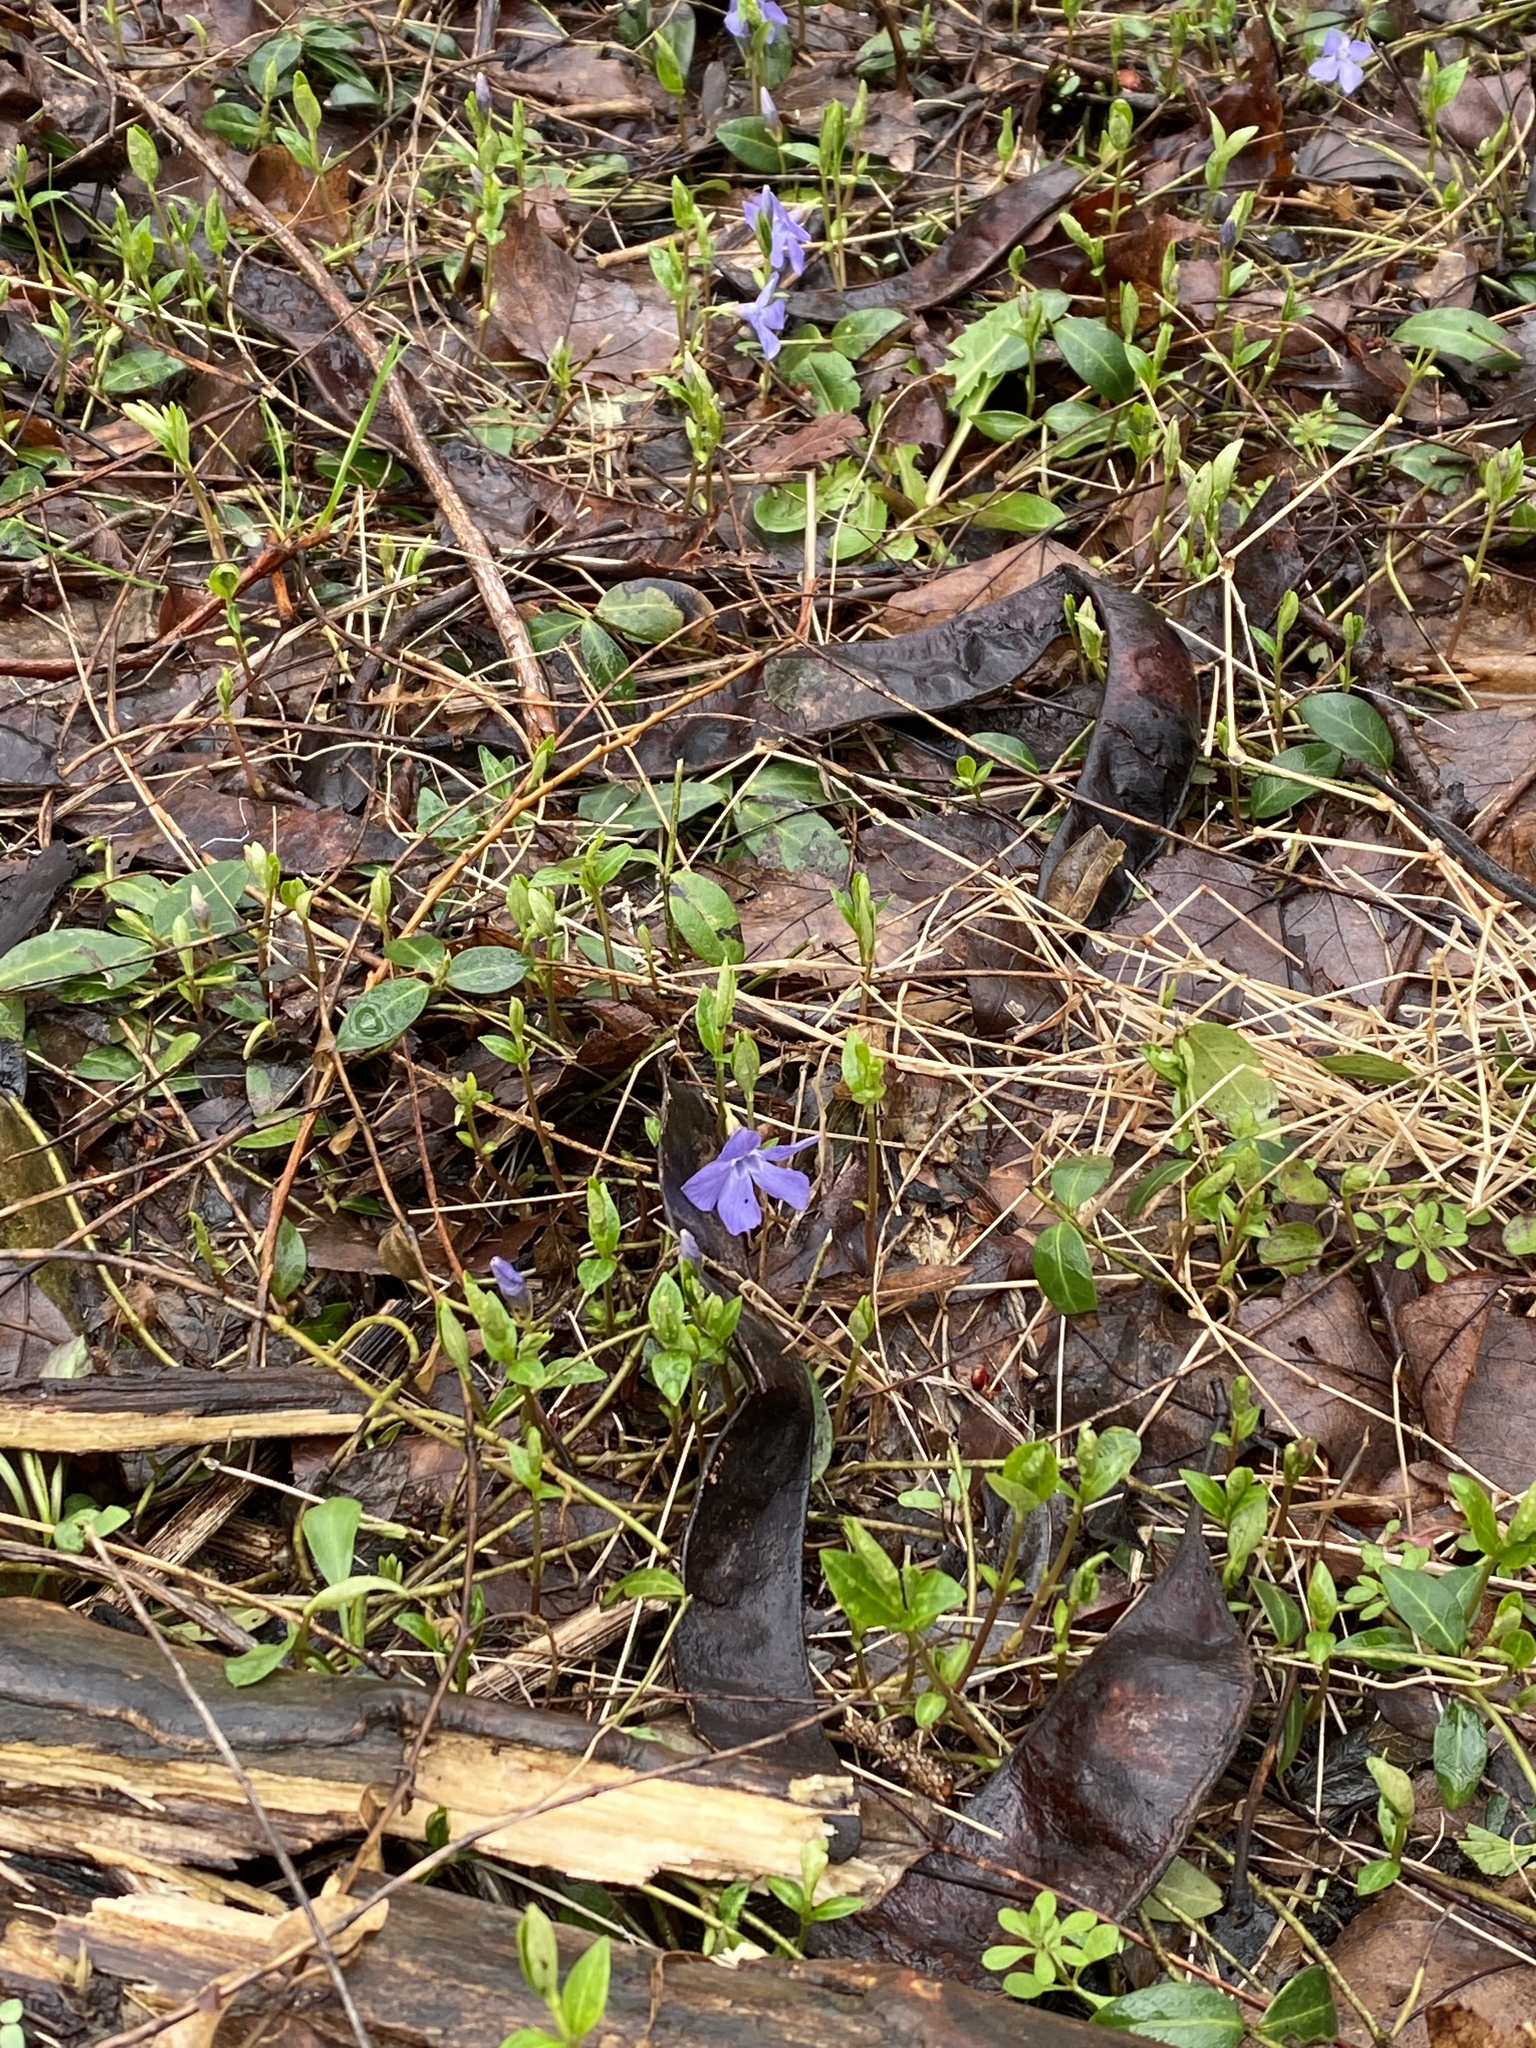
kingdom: Plantae
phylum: Tracheophyta
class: Magnoliopsida
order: Gentianales
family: Apocynaceae
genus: Vinca
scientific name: Vinca minor
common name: Lesser periwinkle
